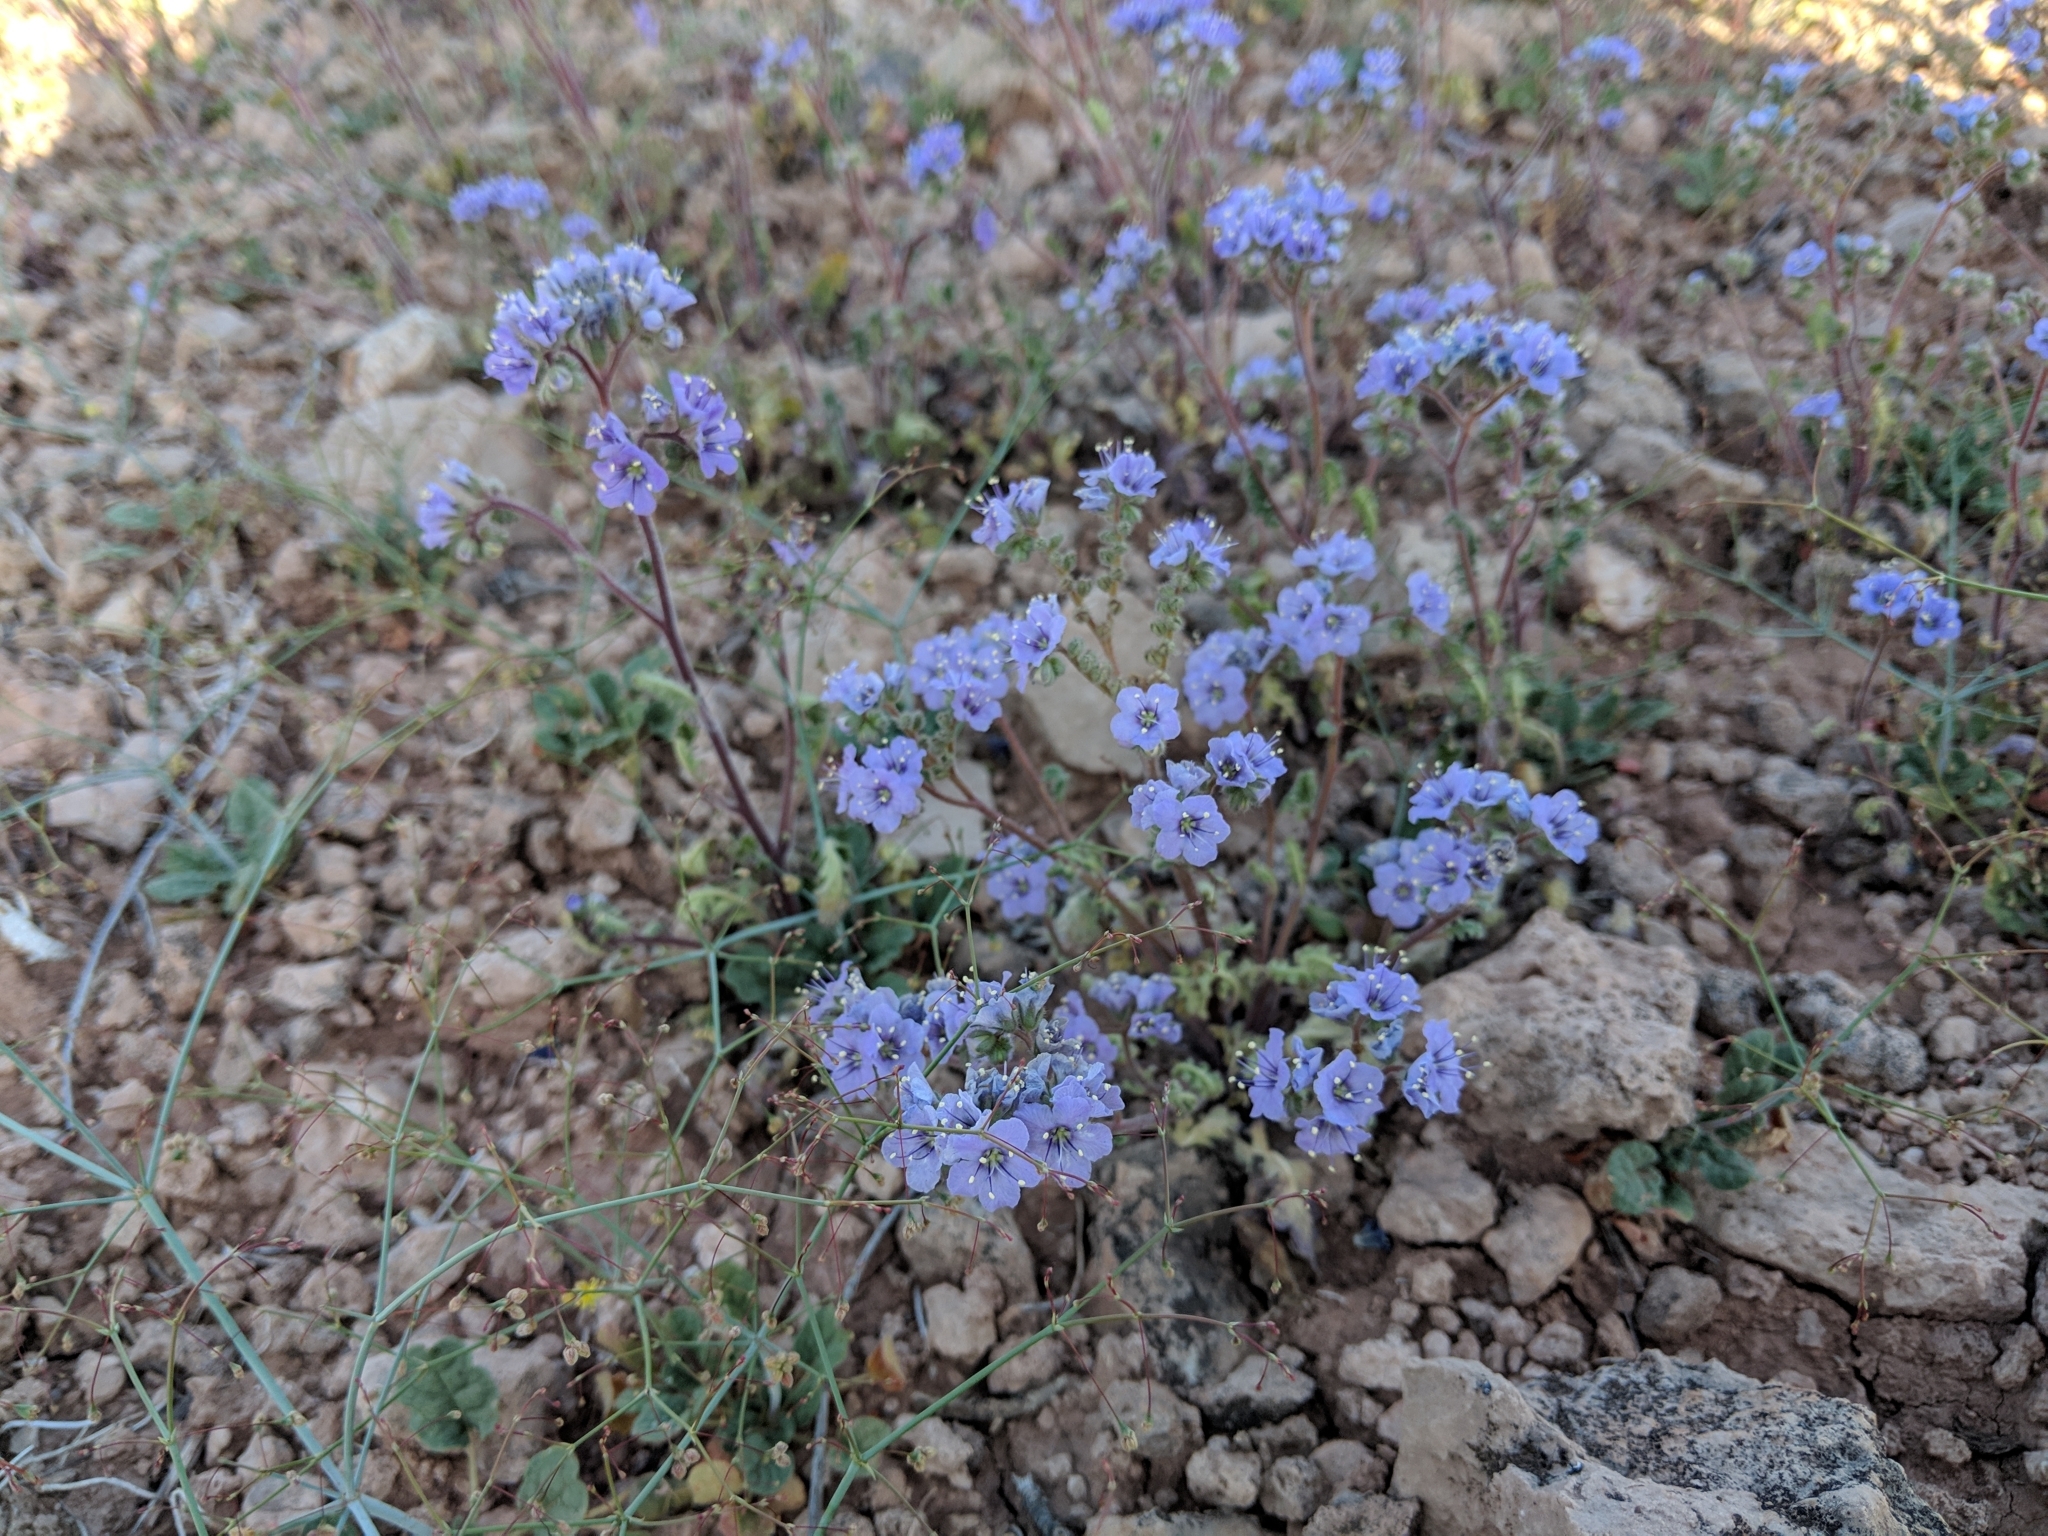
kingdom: Plantae
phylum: Tracheophyta
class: Magnoliopsida
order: Boraginales
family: Hydrophyllaceae
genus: Phacelia
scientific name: Phacelia crenulata
